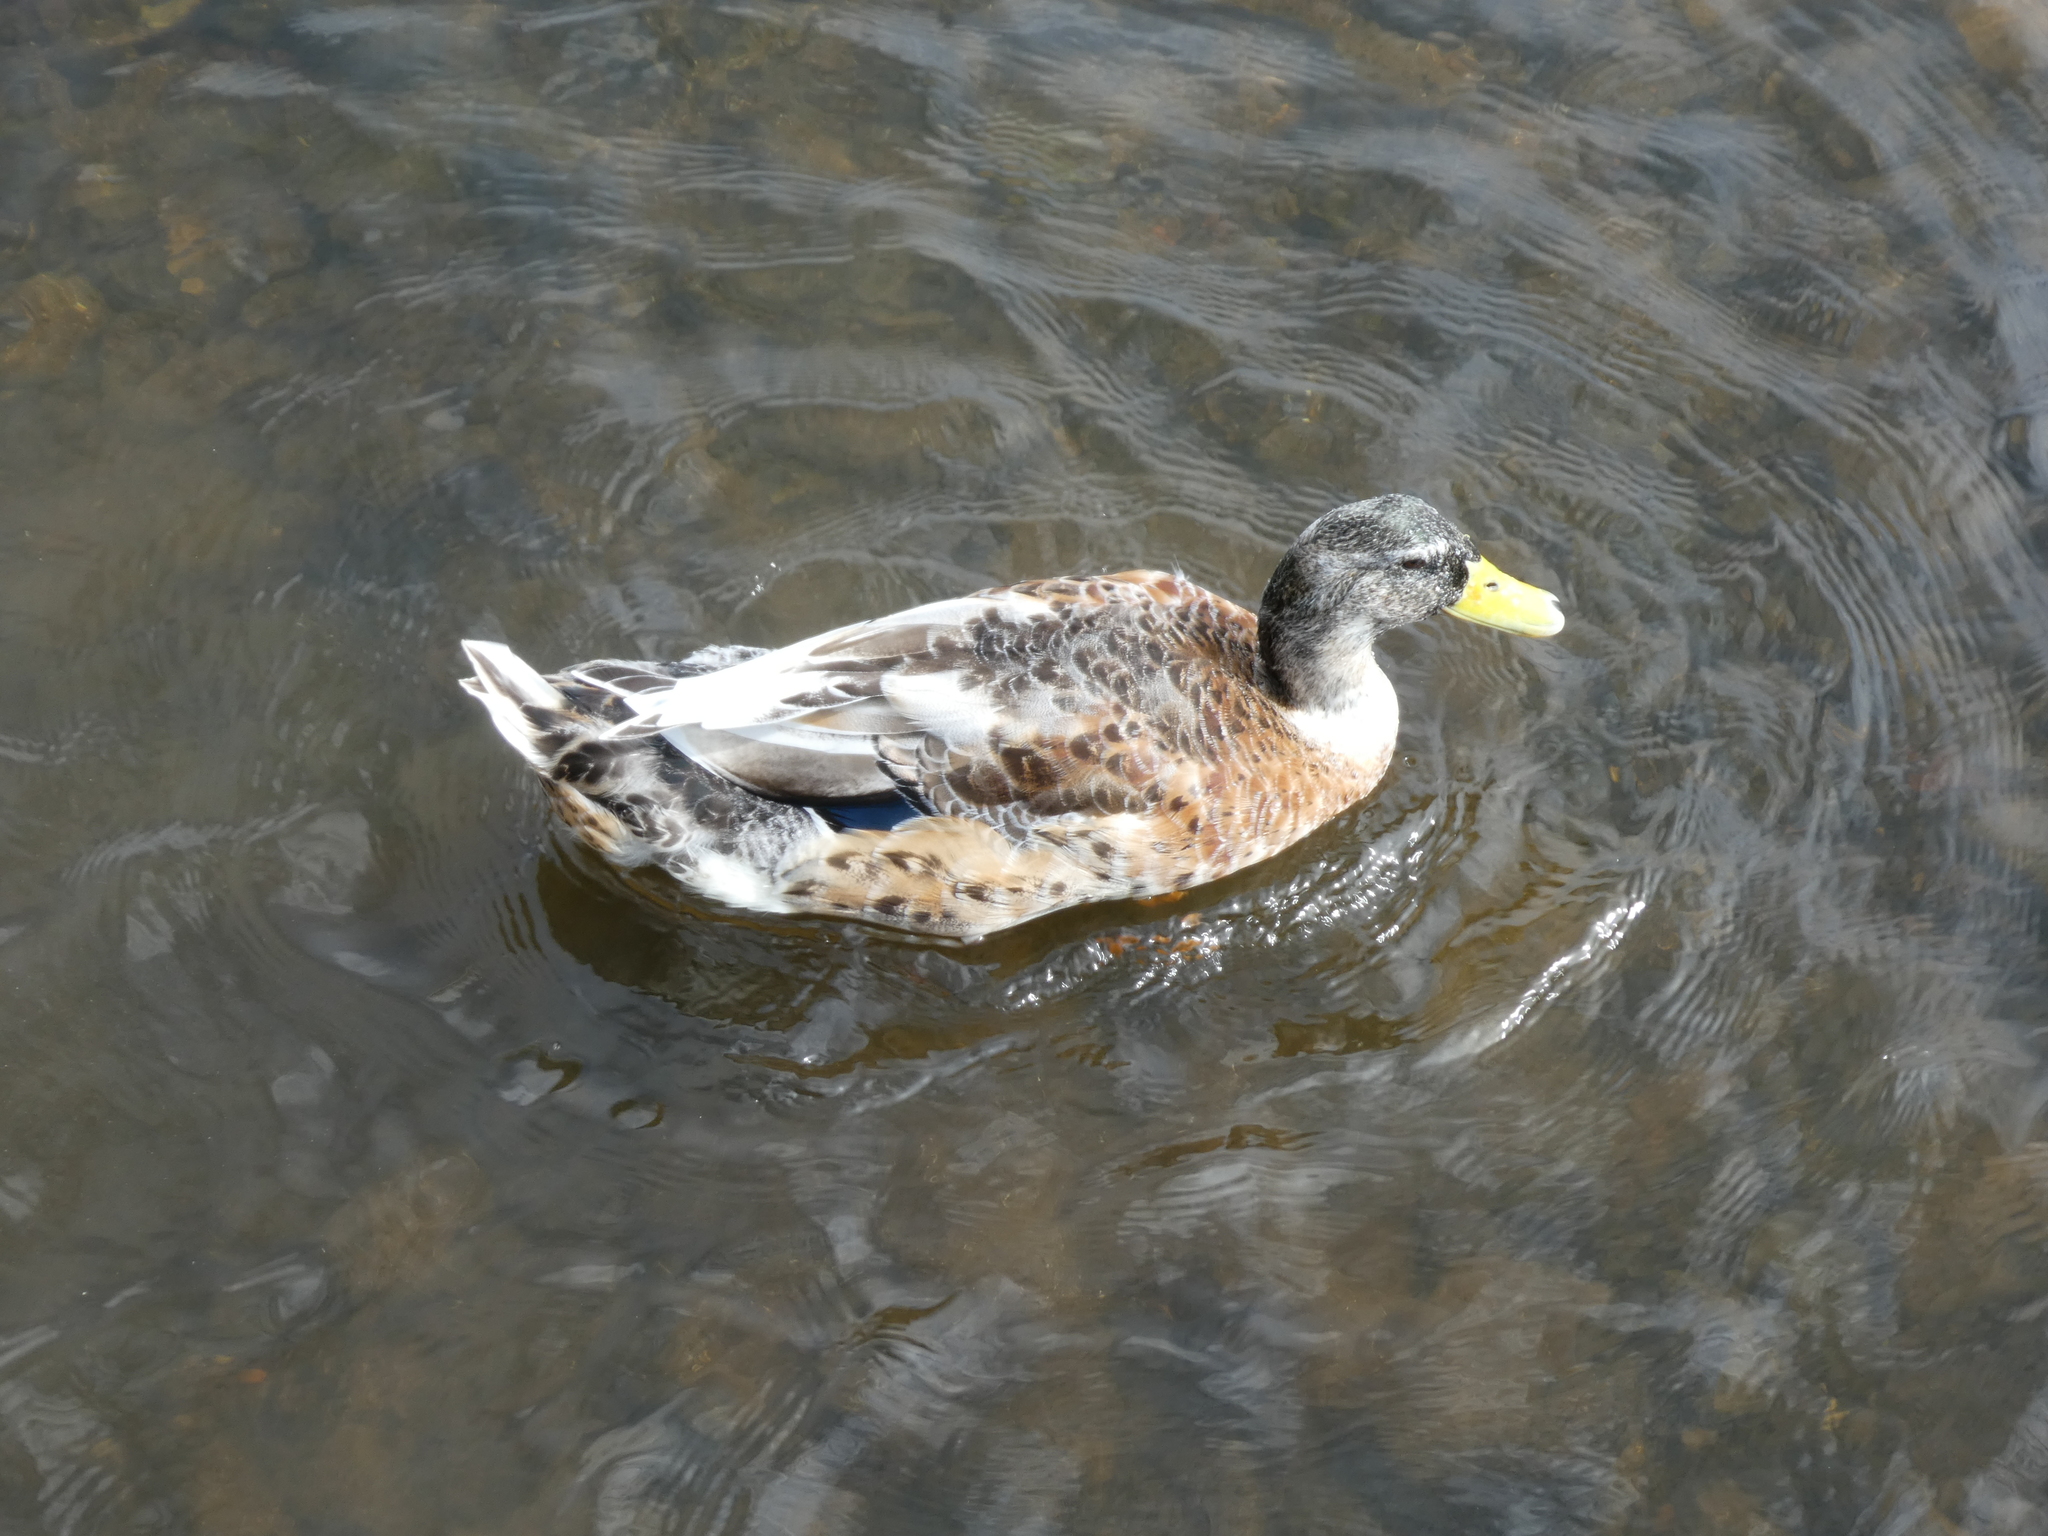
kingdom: Animalia
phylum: Chordata
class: Aves
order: Anseriformes
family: Anatidae
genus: Anas
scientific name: Anas platyrhynchos
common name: Mallard
